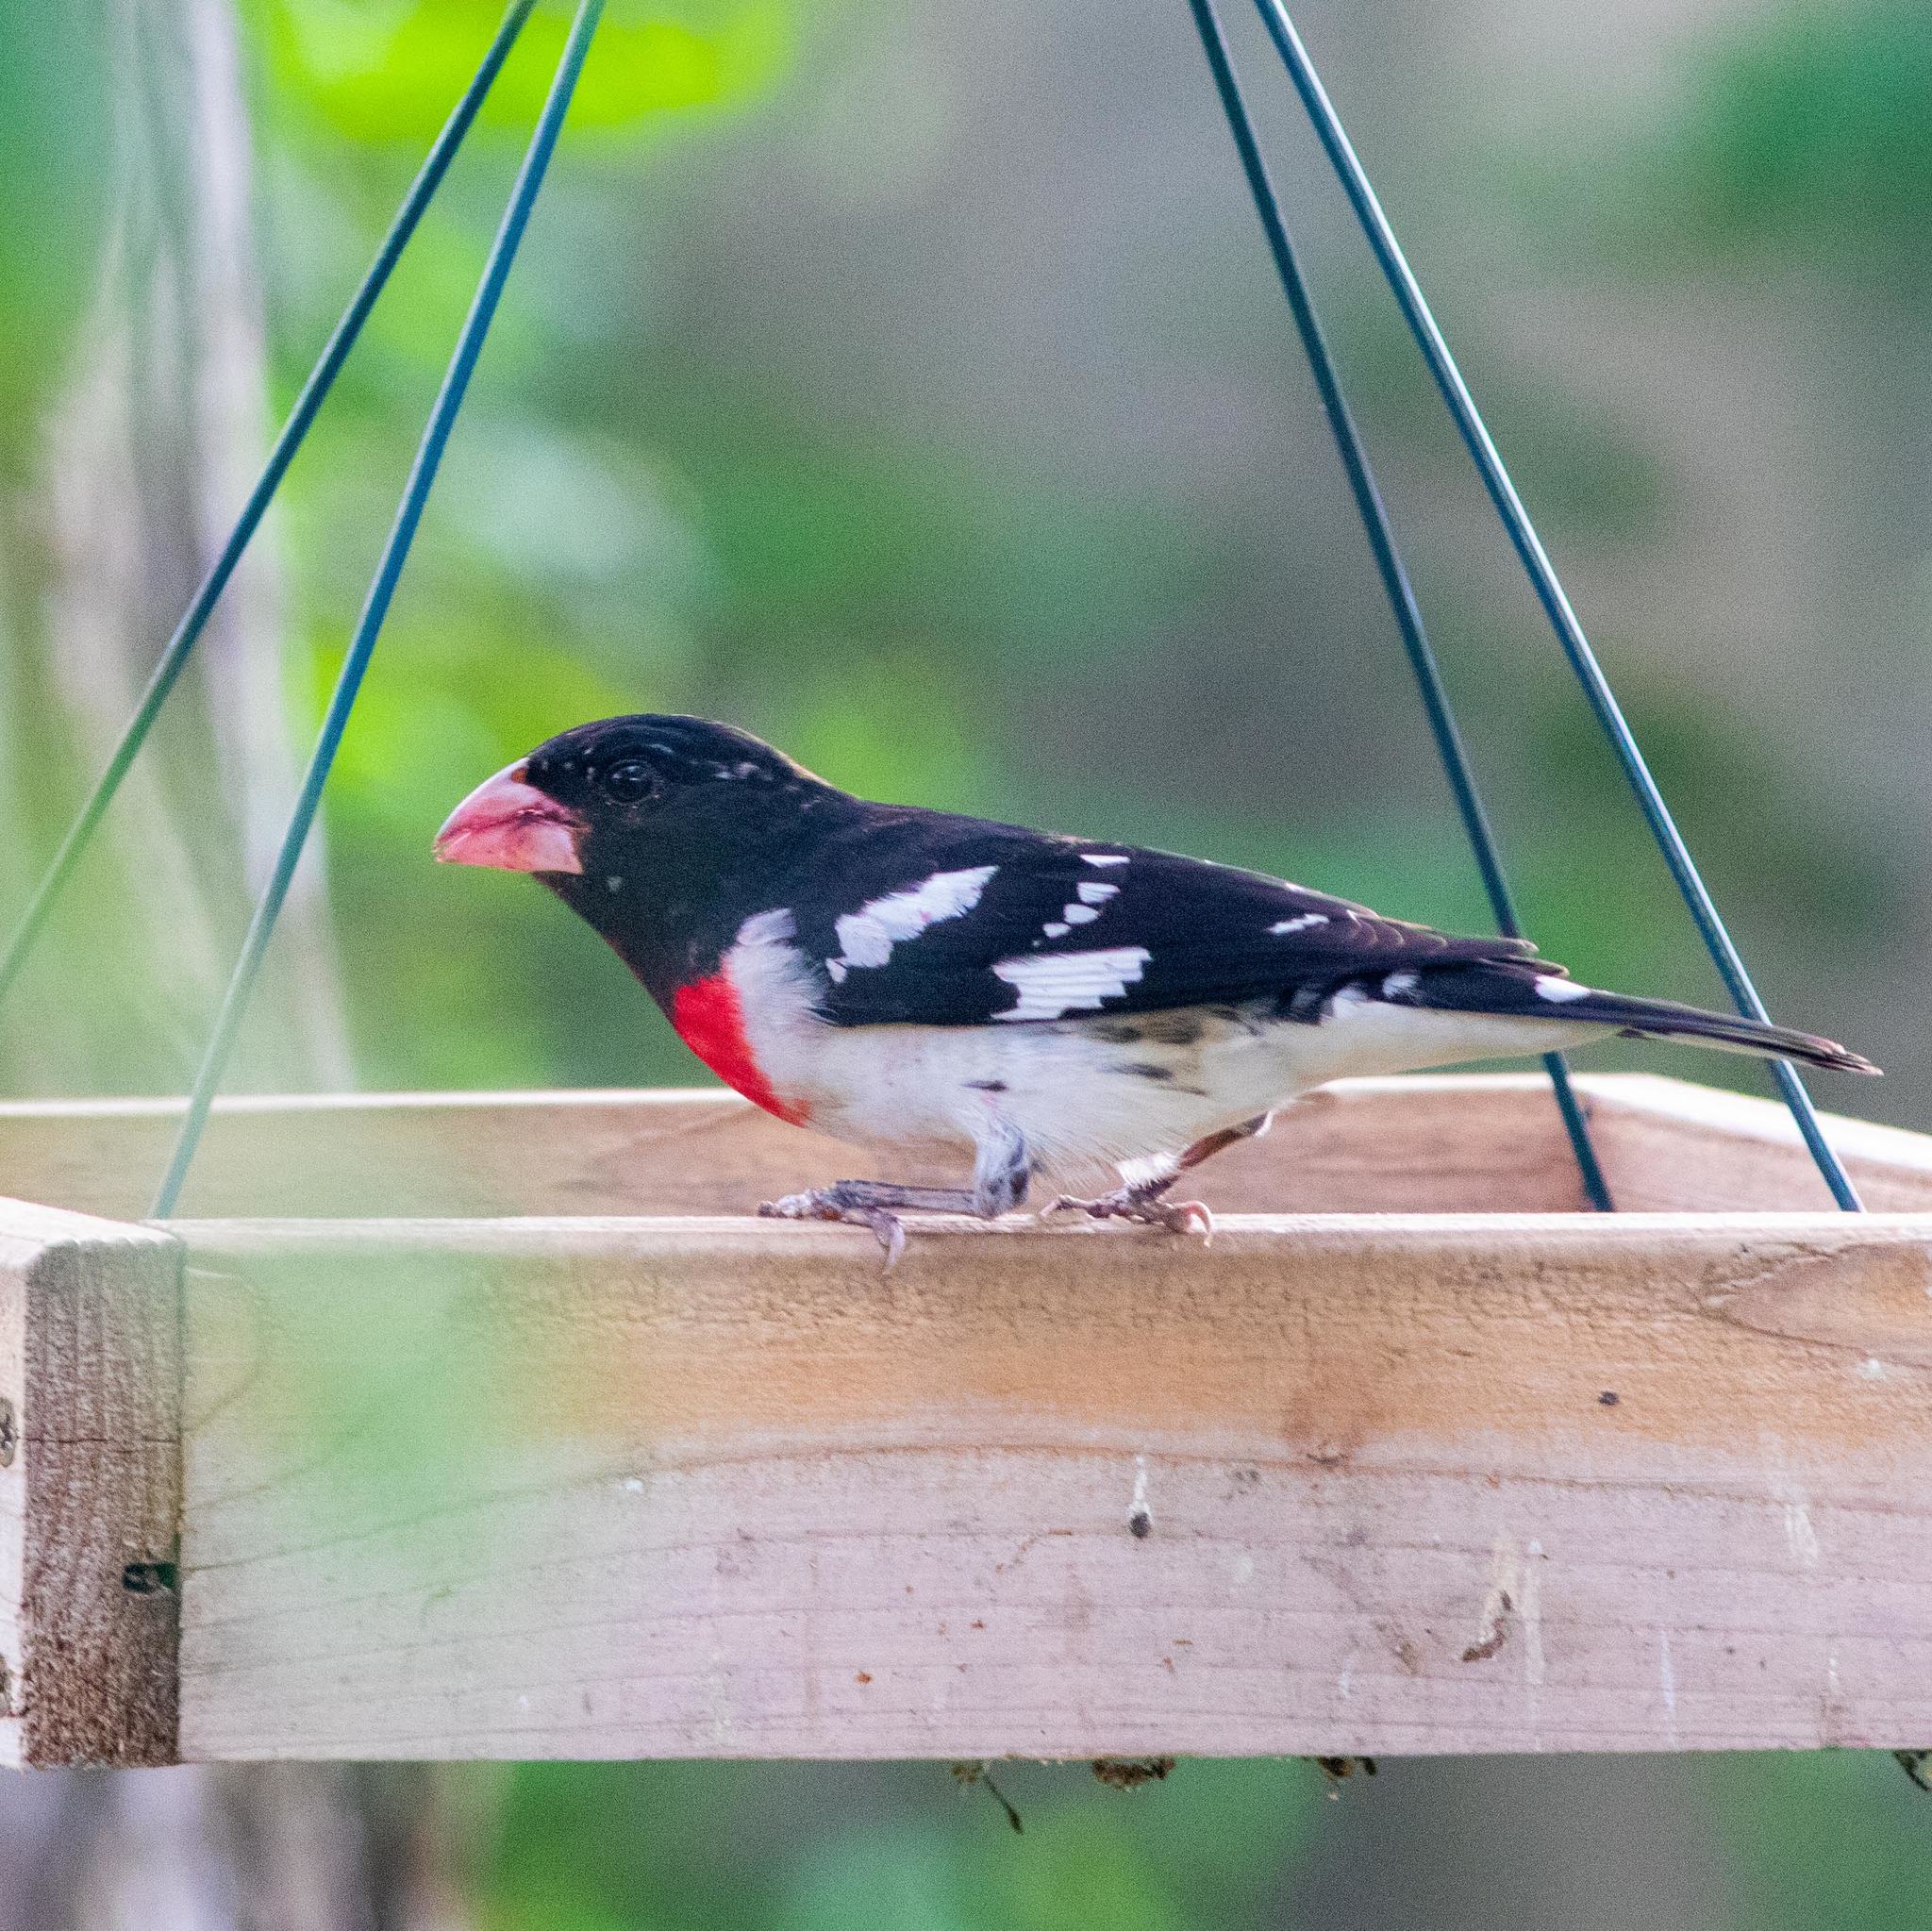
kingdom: Animalia
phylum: Chordata
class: Aves
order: Passeriformes
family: Cardinalidae
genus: Pheucticus
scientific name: Pheucticus ludovicianus
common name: Rose-breasted grosbeak
